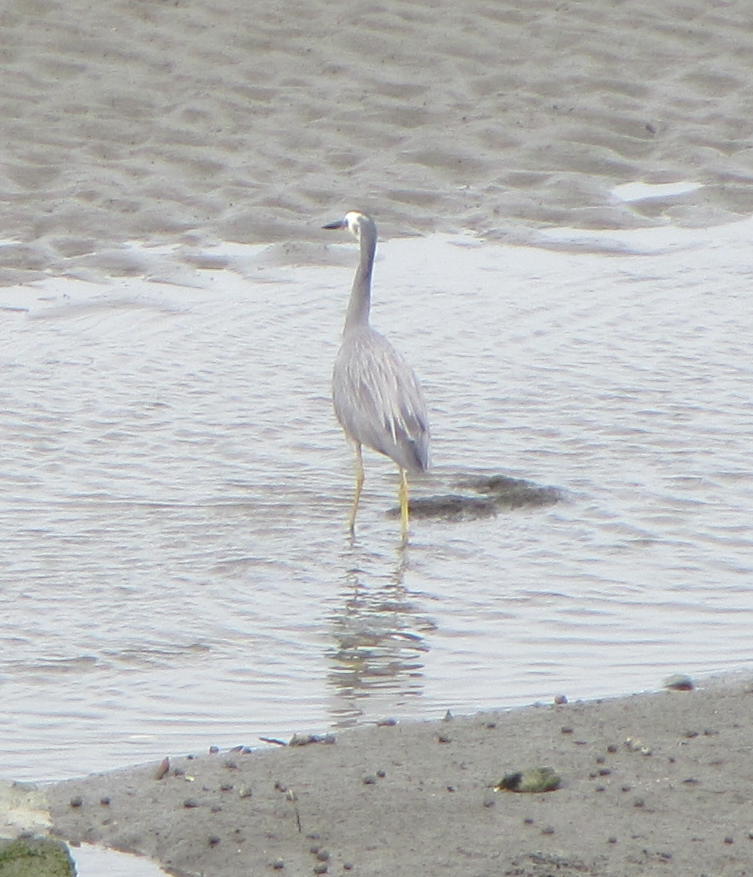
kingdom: Animalia
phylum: Chordata
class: Aves
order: Pelecaniformes
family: Ardeidae
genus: Egretta
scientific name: Egretta novaehollandiae
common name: White-faced heron
